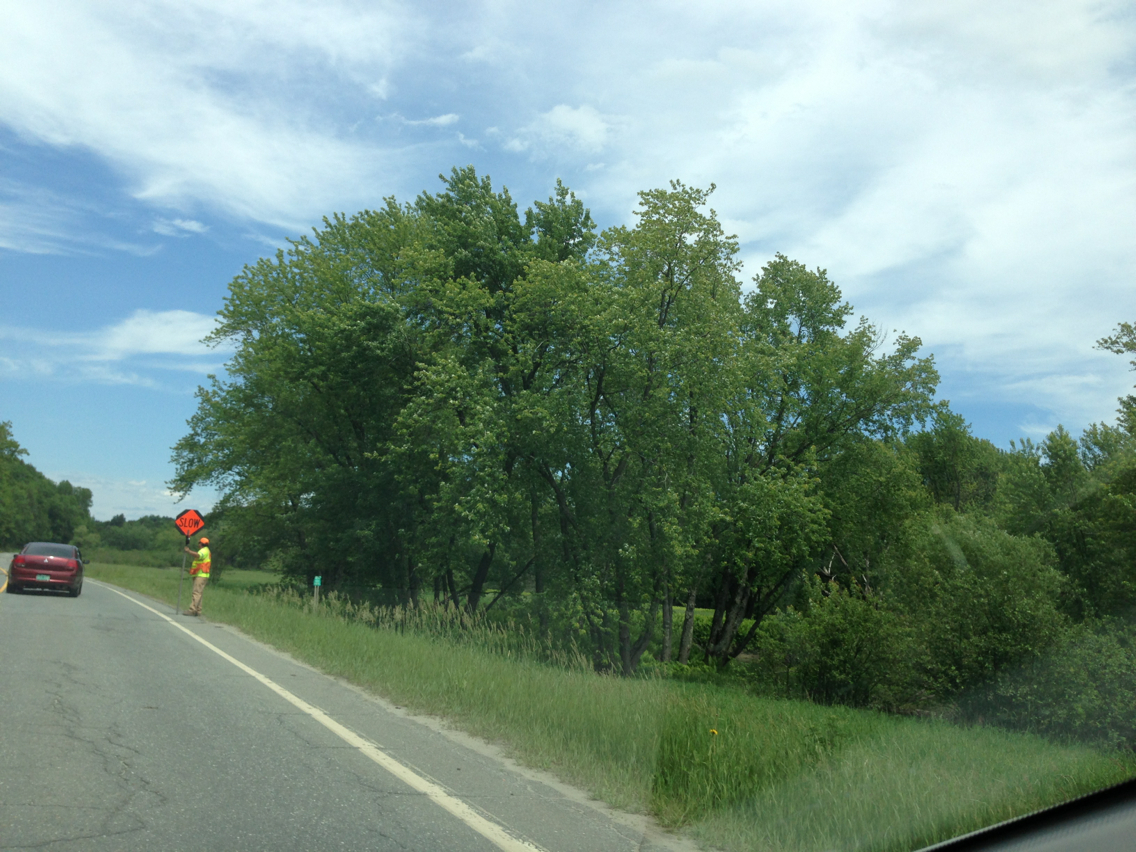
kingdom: Plantae
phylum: Tracheophyta
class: Magnoliopsida
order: Sapindales
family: Sapindaceae
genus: Acer
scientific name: Acer saccharinum
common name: Silver maple
